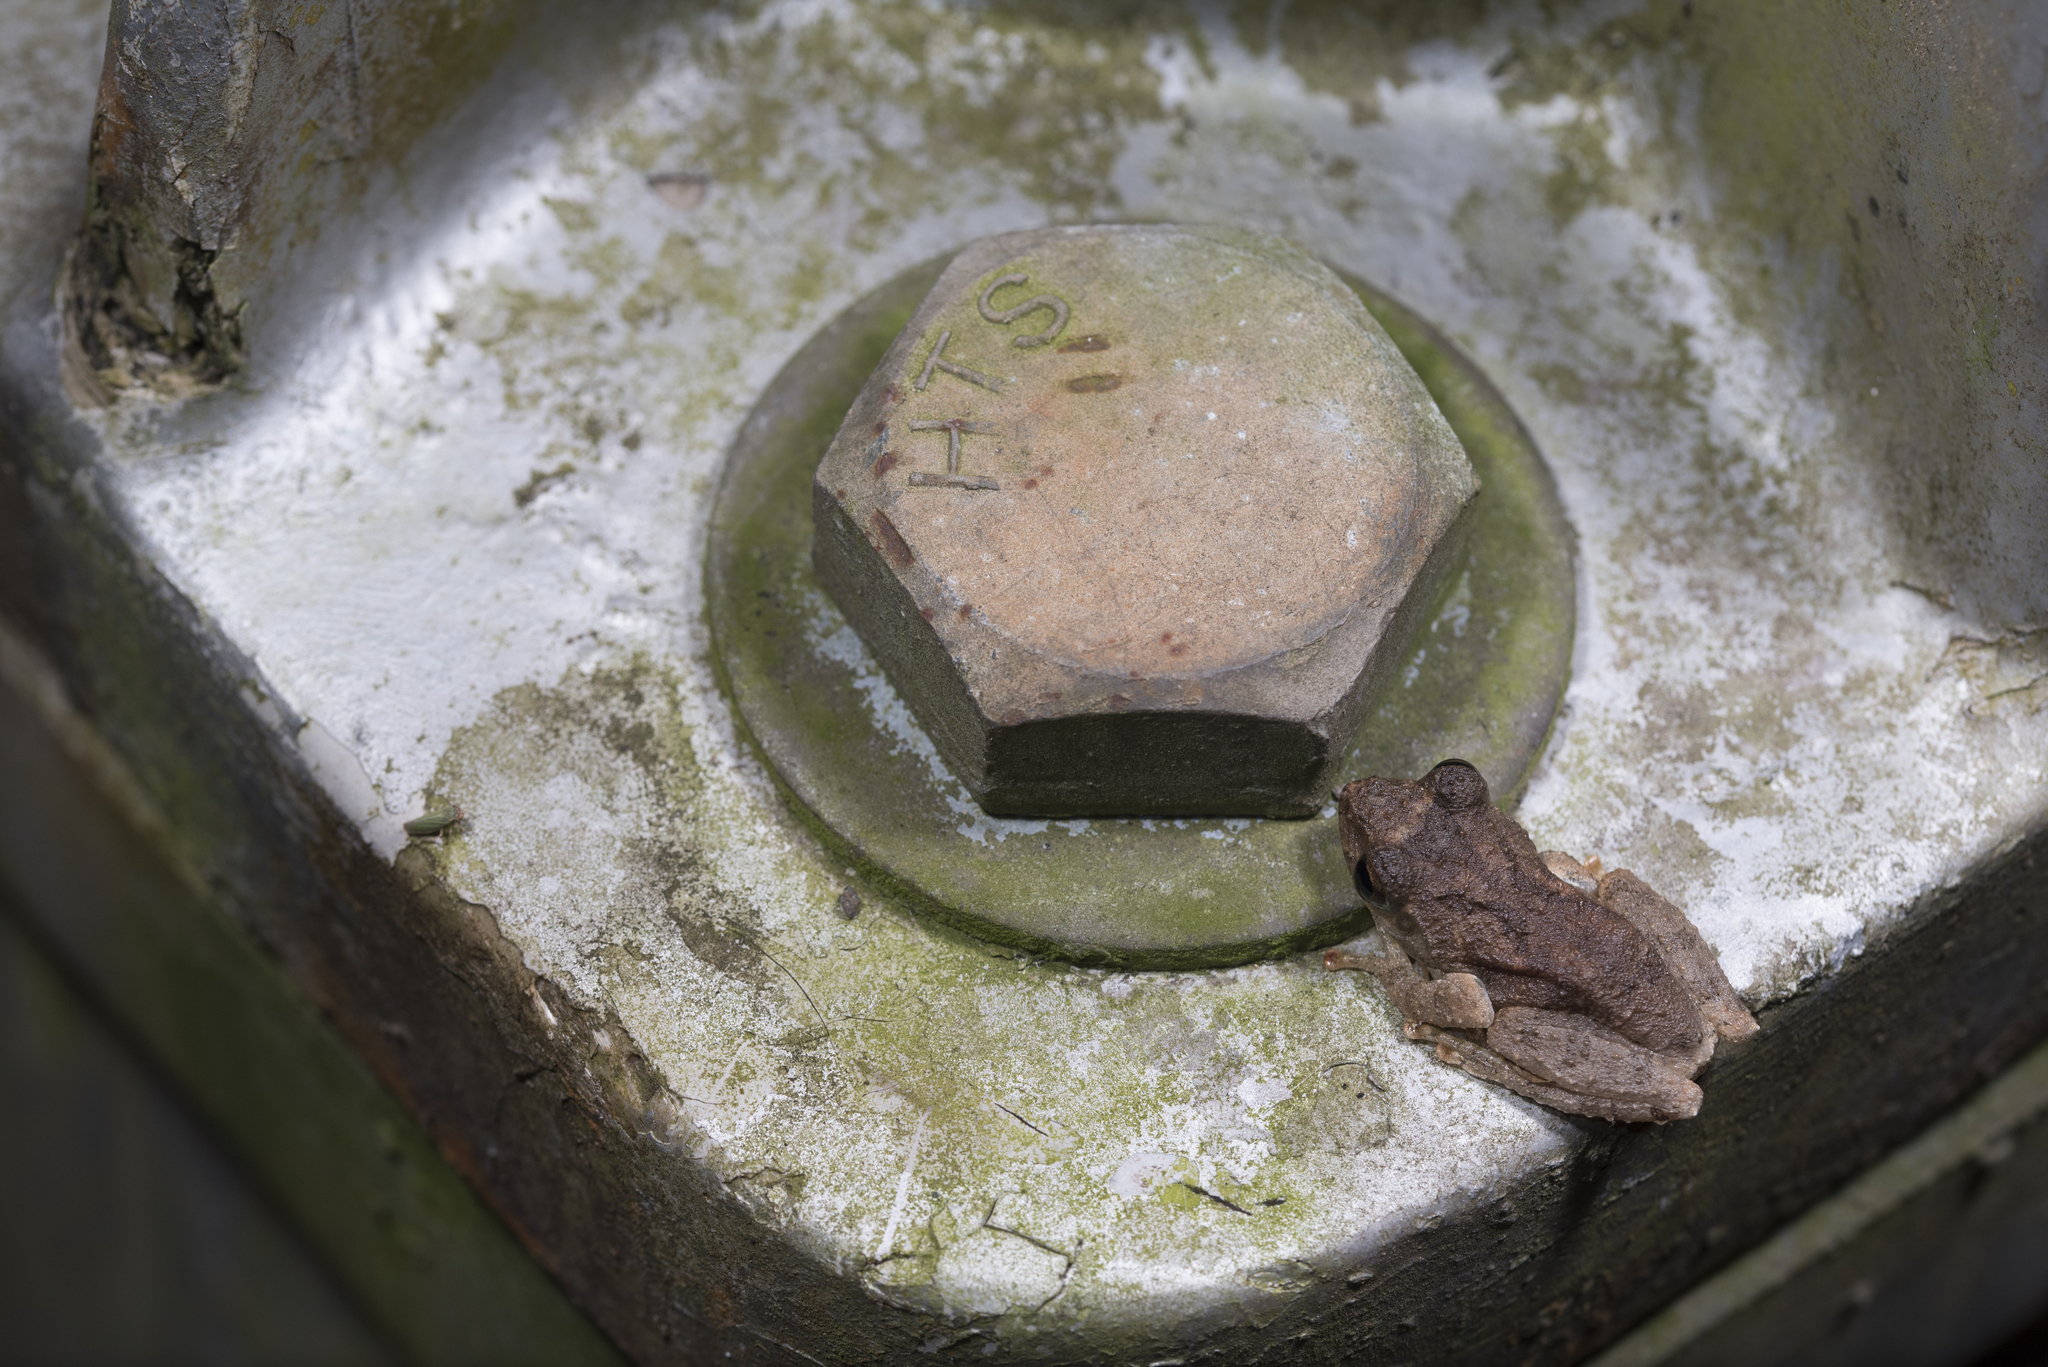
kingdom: Animalia
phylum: Chordata
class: Amphibia
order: Anura
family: Rhacophoridae
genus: Kurixalus
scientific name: Kurixalus idiootocus
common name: Temple treefrog
